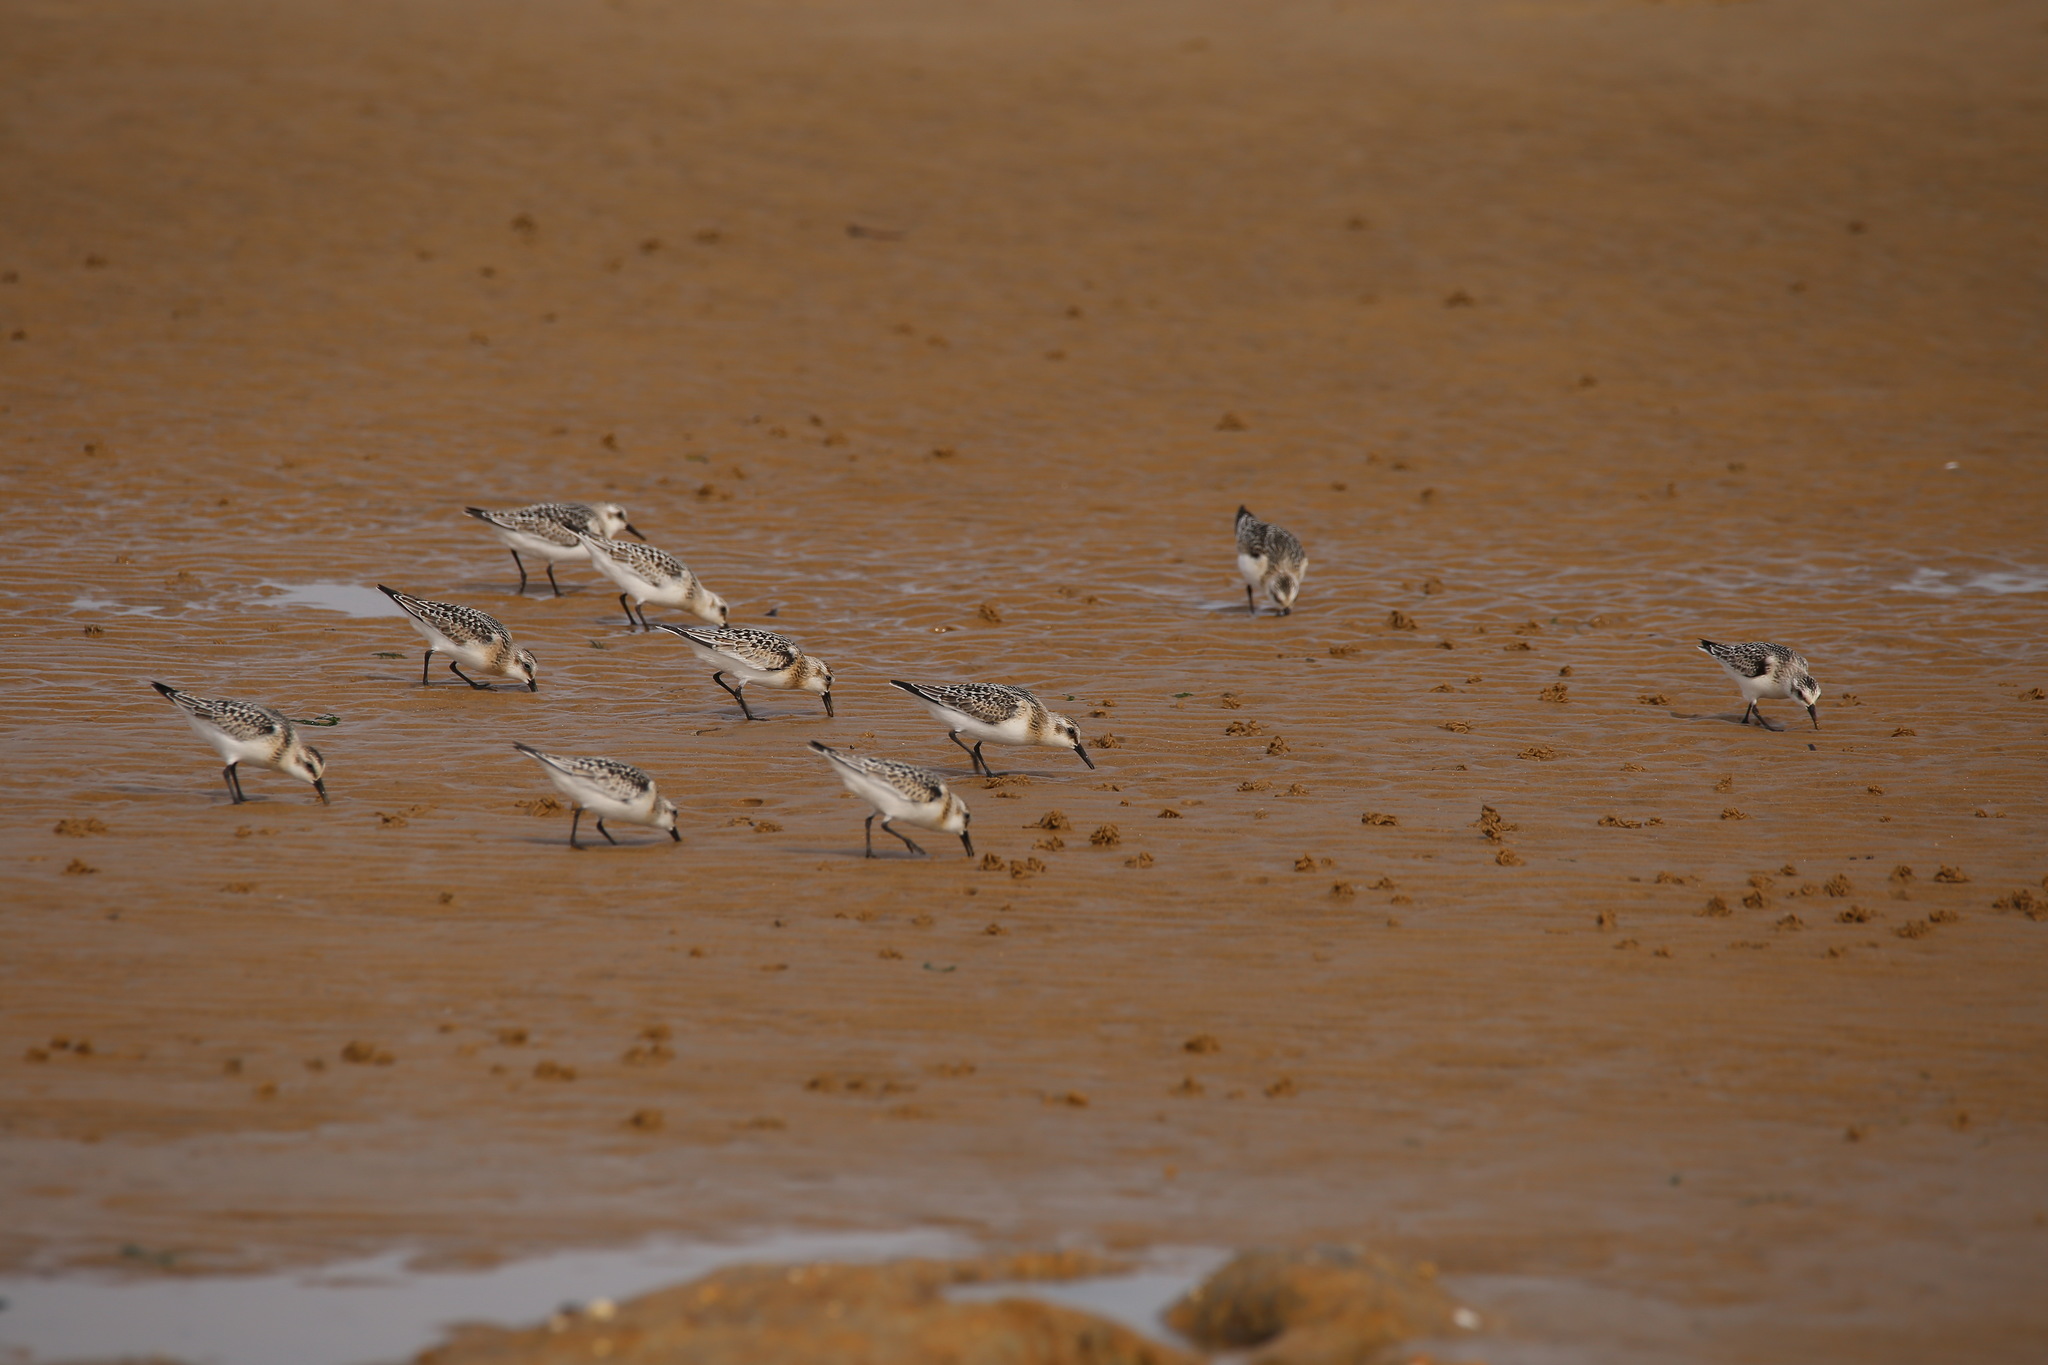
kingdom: Animalia
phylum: Chordata
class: Aves
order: Charadriiformes
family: Scolopacidae
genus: Calidris
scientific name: Calidris alba
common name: Sanderling
